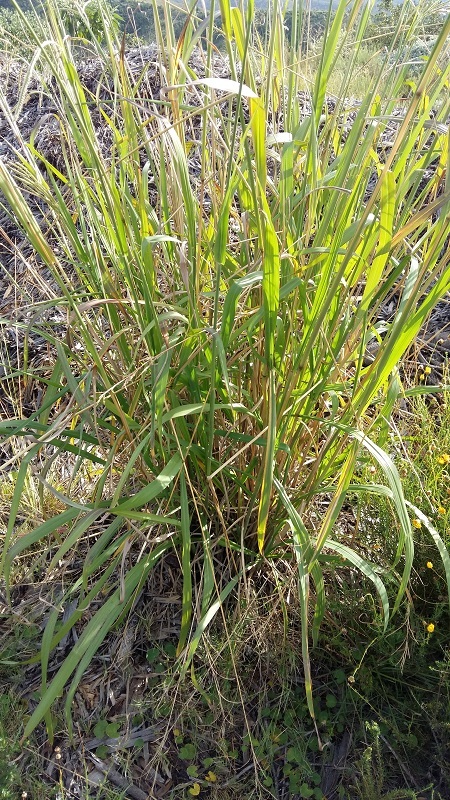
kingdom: Plantae
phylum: Tracheophyta
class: Liliopsida
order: Poales
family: Poaceae
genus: Paspalum
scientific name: Paspalum urvillei
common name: Vasey's grass
